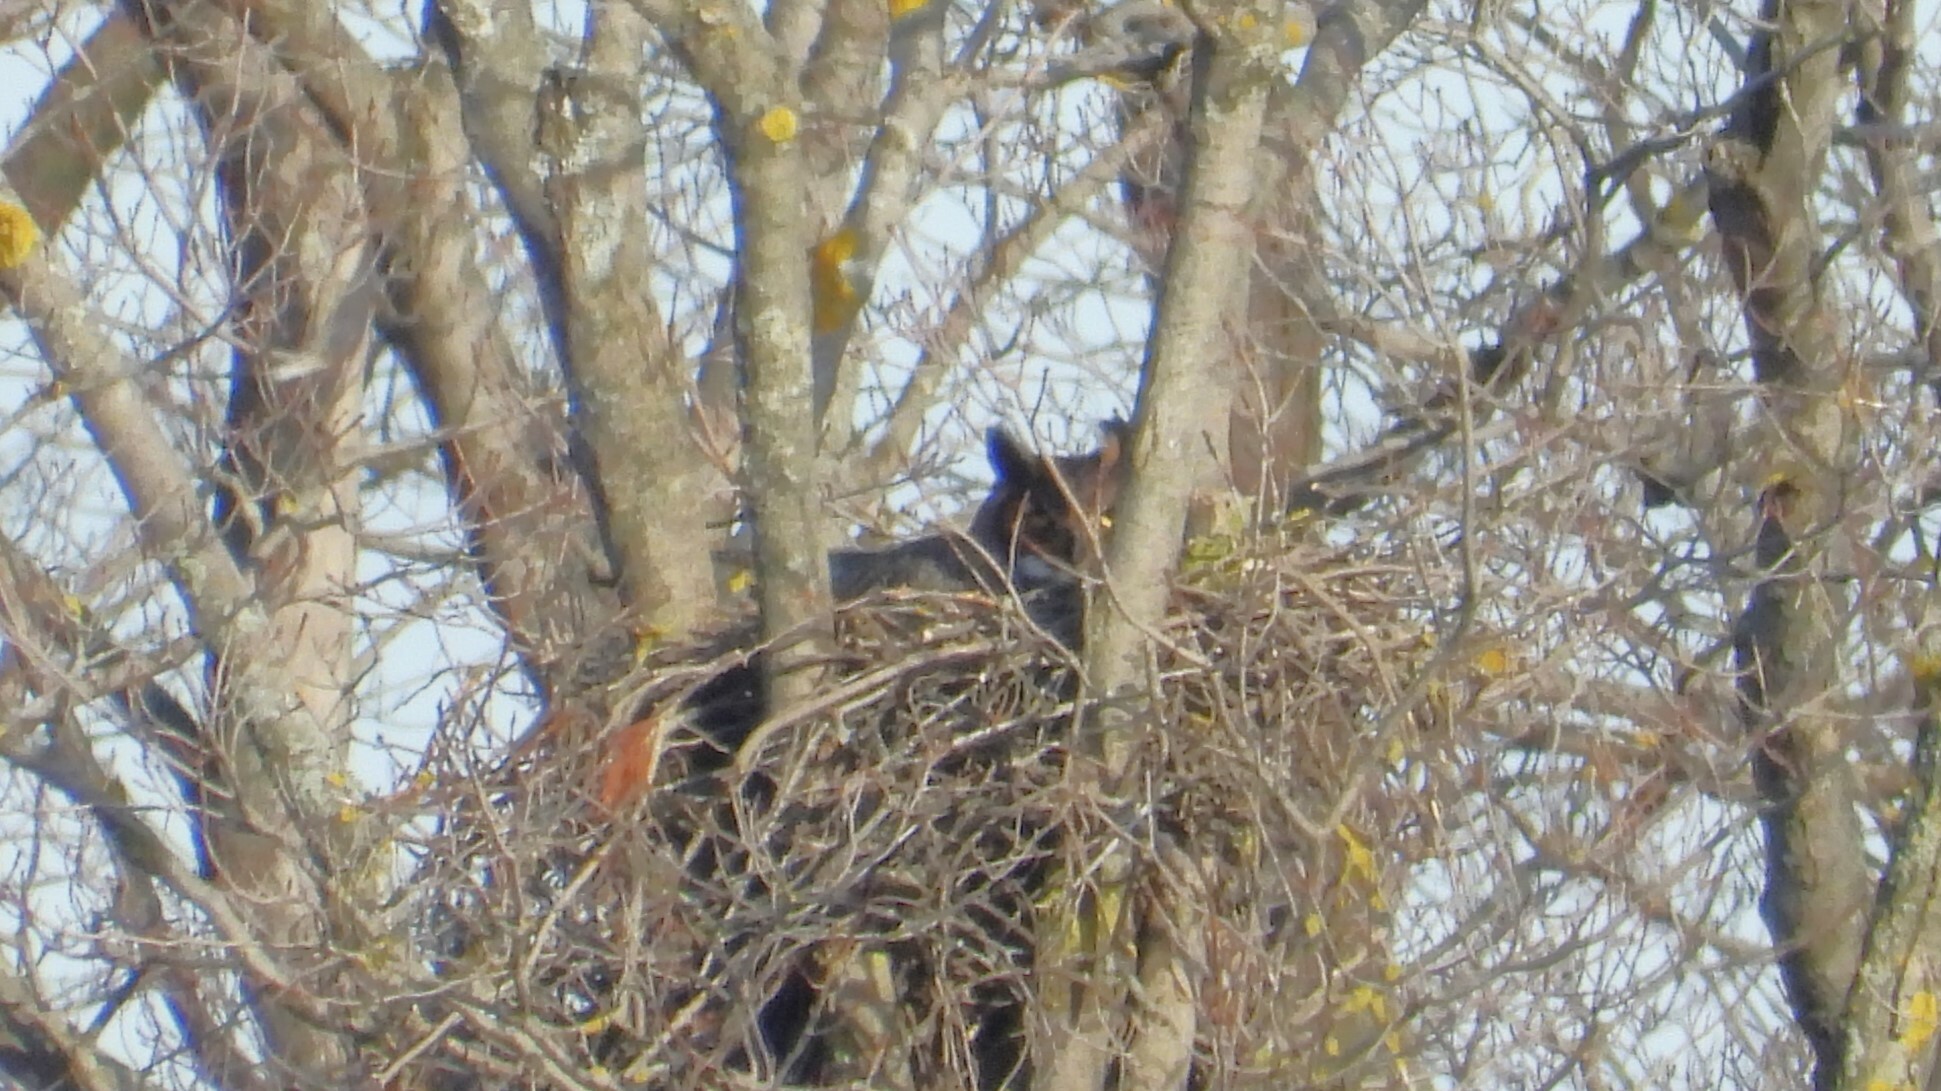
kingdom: Animalia
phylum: Chordata
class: Aves
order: Strigiformes
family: Strigidae
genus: Bubo
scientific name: Bubo virginianus
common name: Great horned owl
